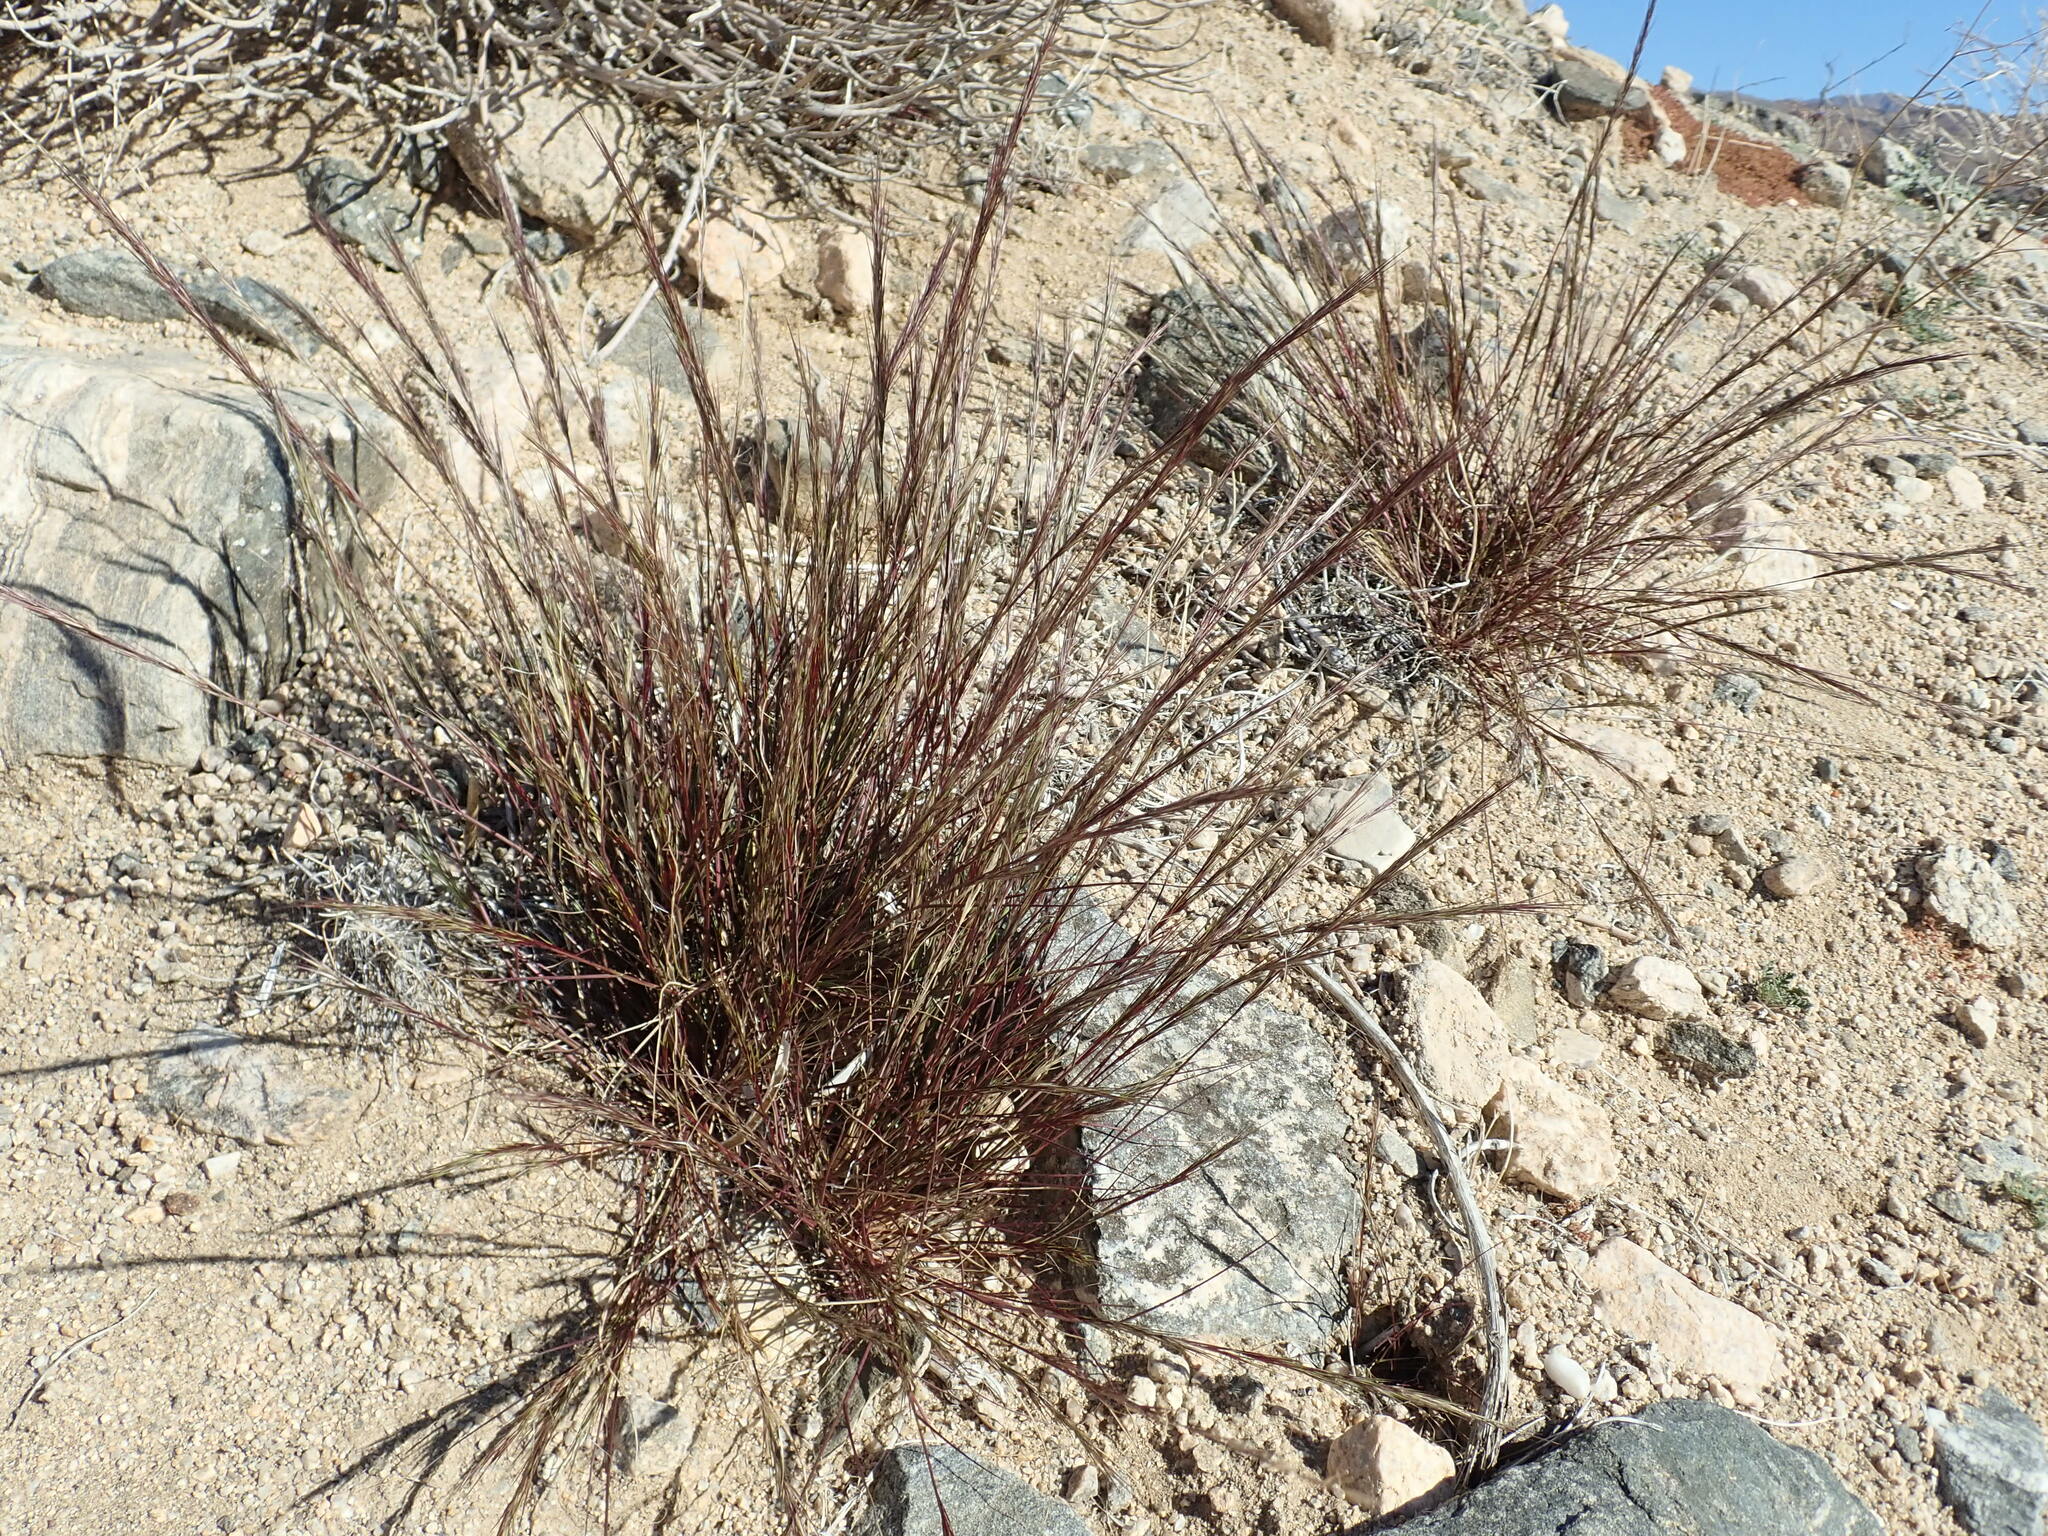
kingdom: Plantae
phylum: Tracheophyta
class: Liliopsida
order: Poales
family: Poaceae
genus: Aristida
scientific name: Aristida adscensionis
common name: Sixweeks threeawn
